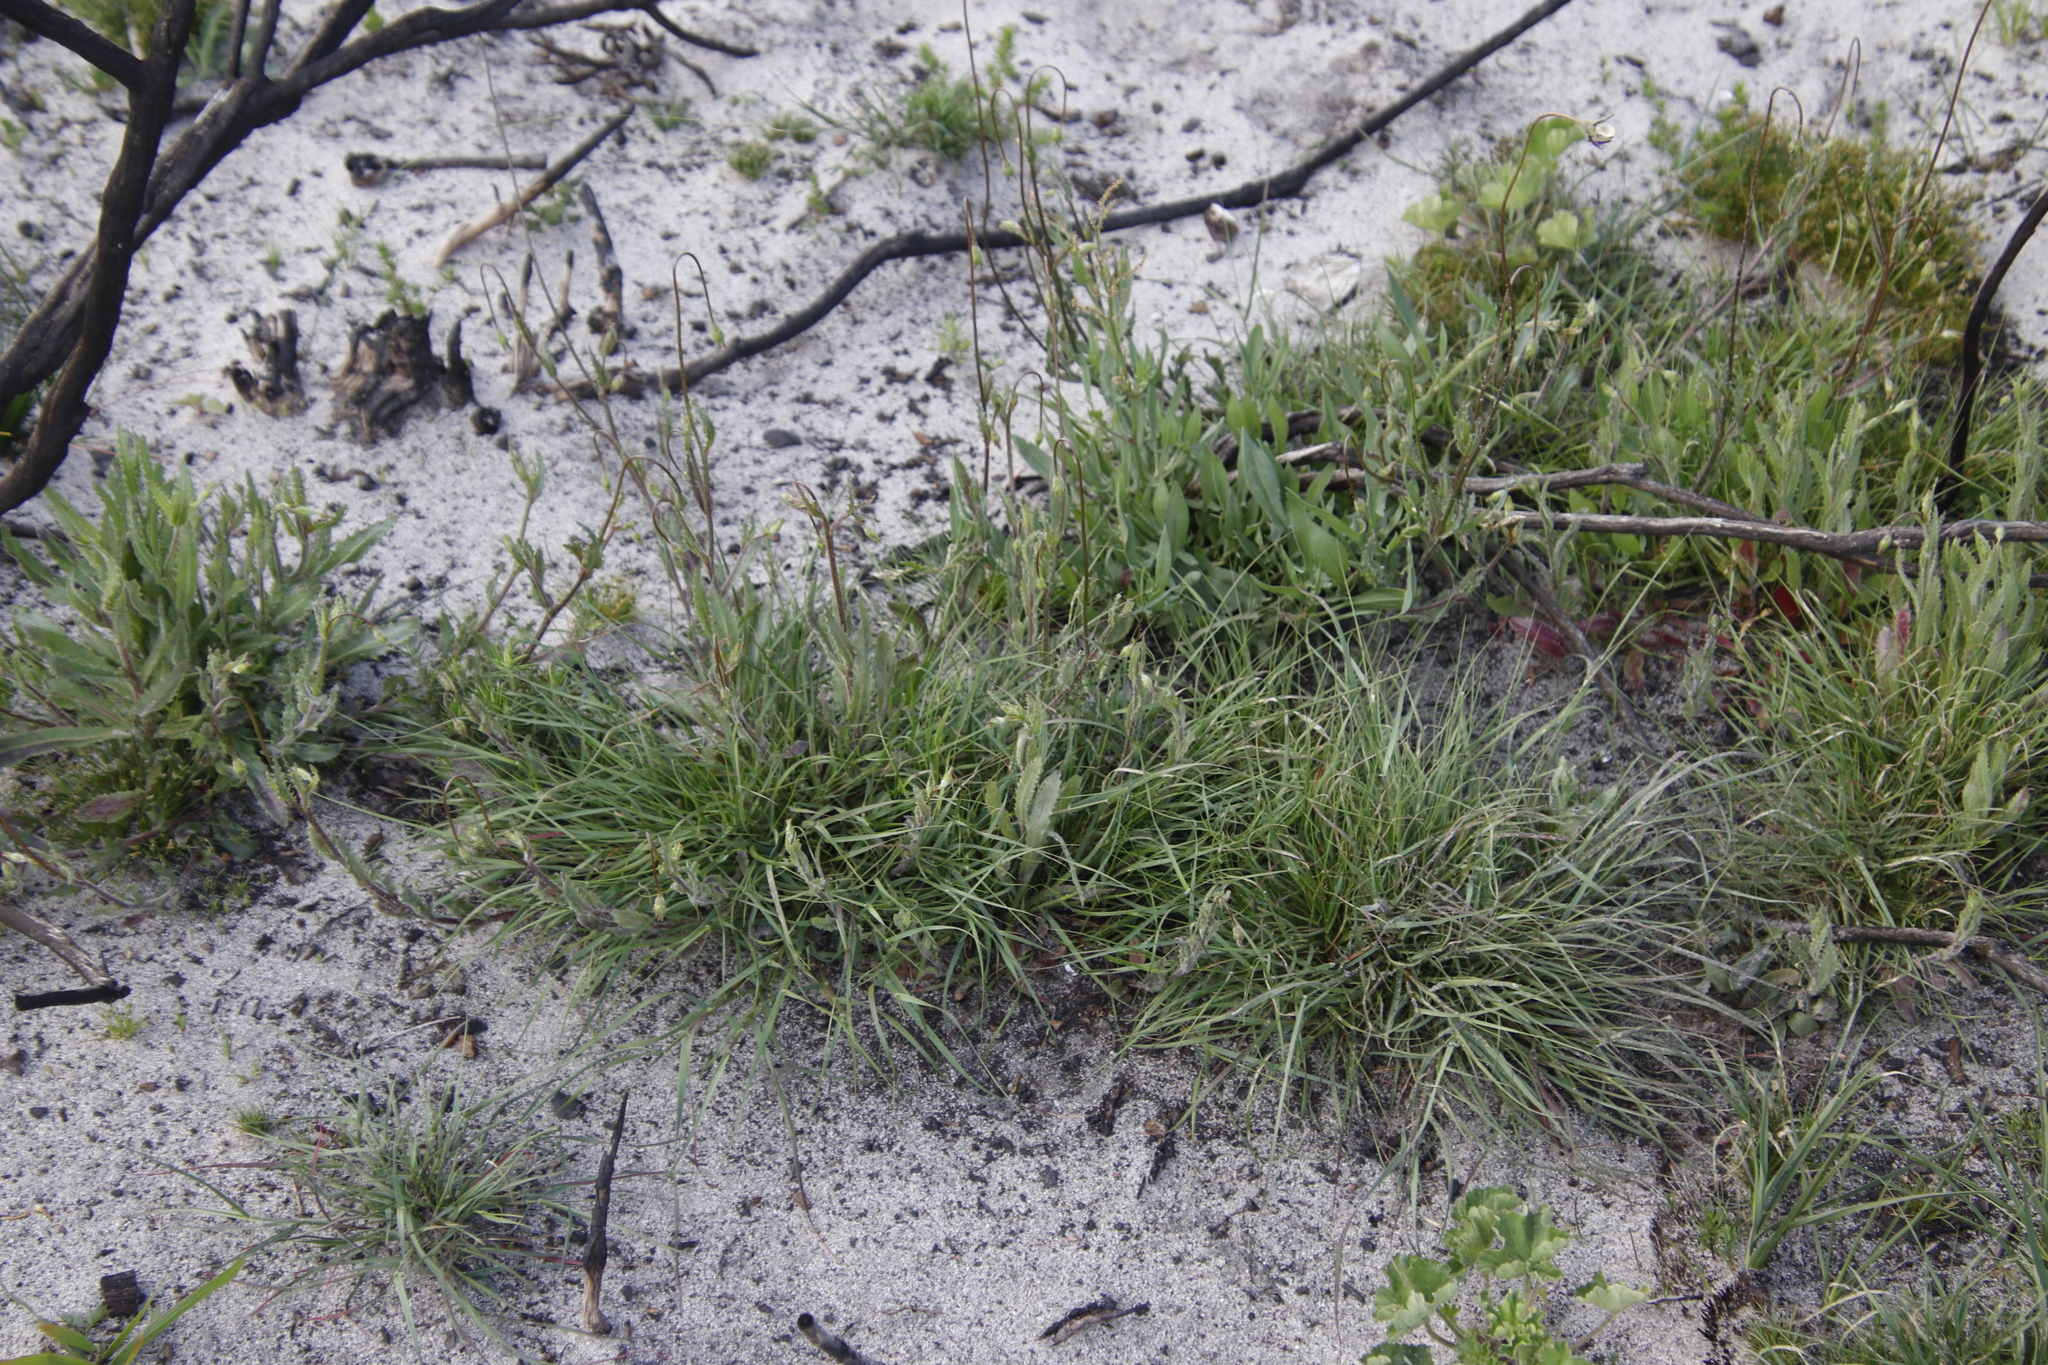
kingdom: Plantae
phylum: Tracheophyta
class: Magnoliopsida
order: Asterales
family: Campanulaceae
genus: Wahlenbergia
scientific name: Wahlenbergia capensis
